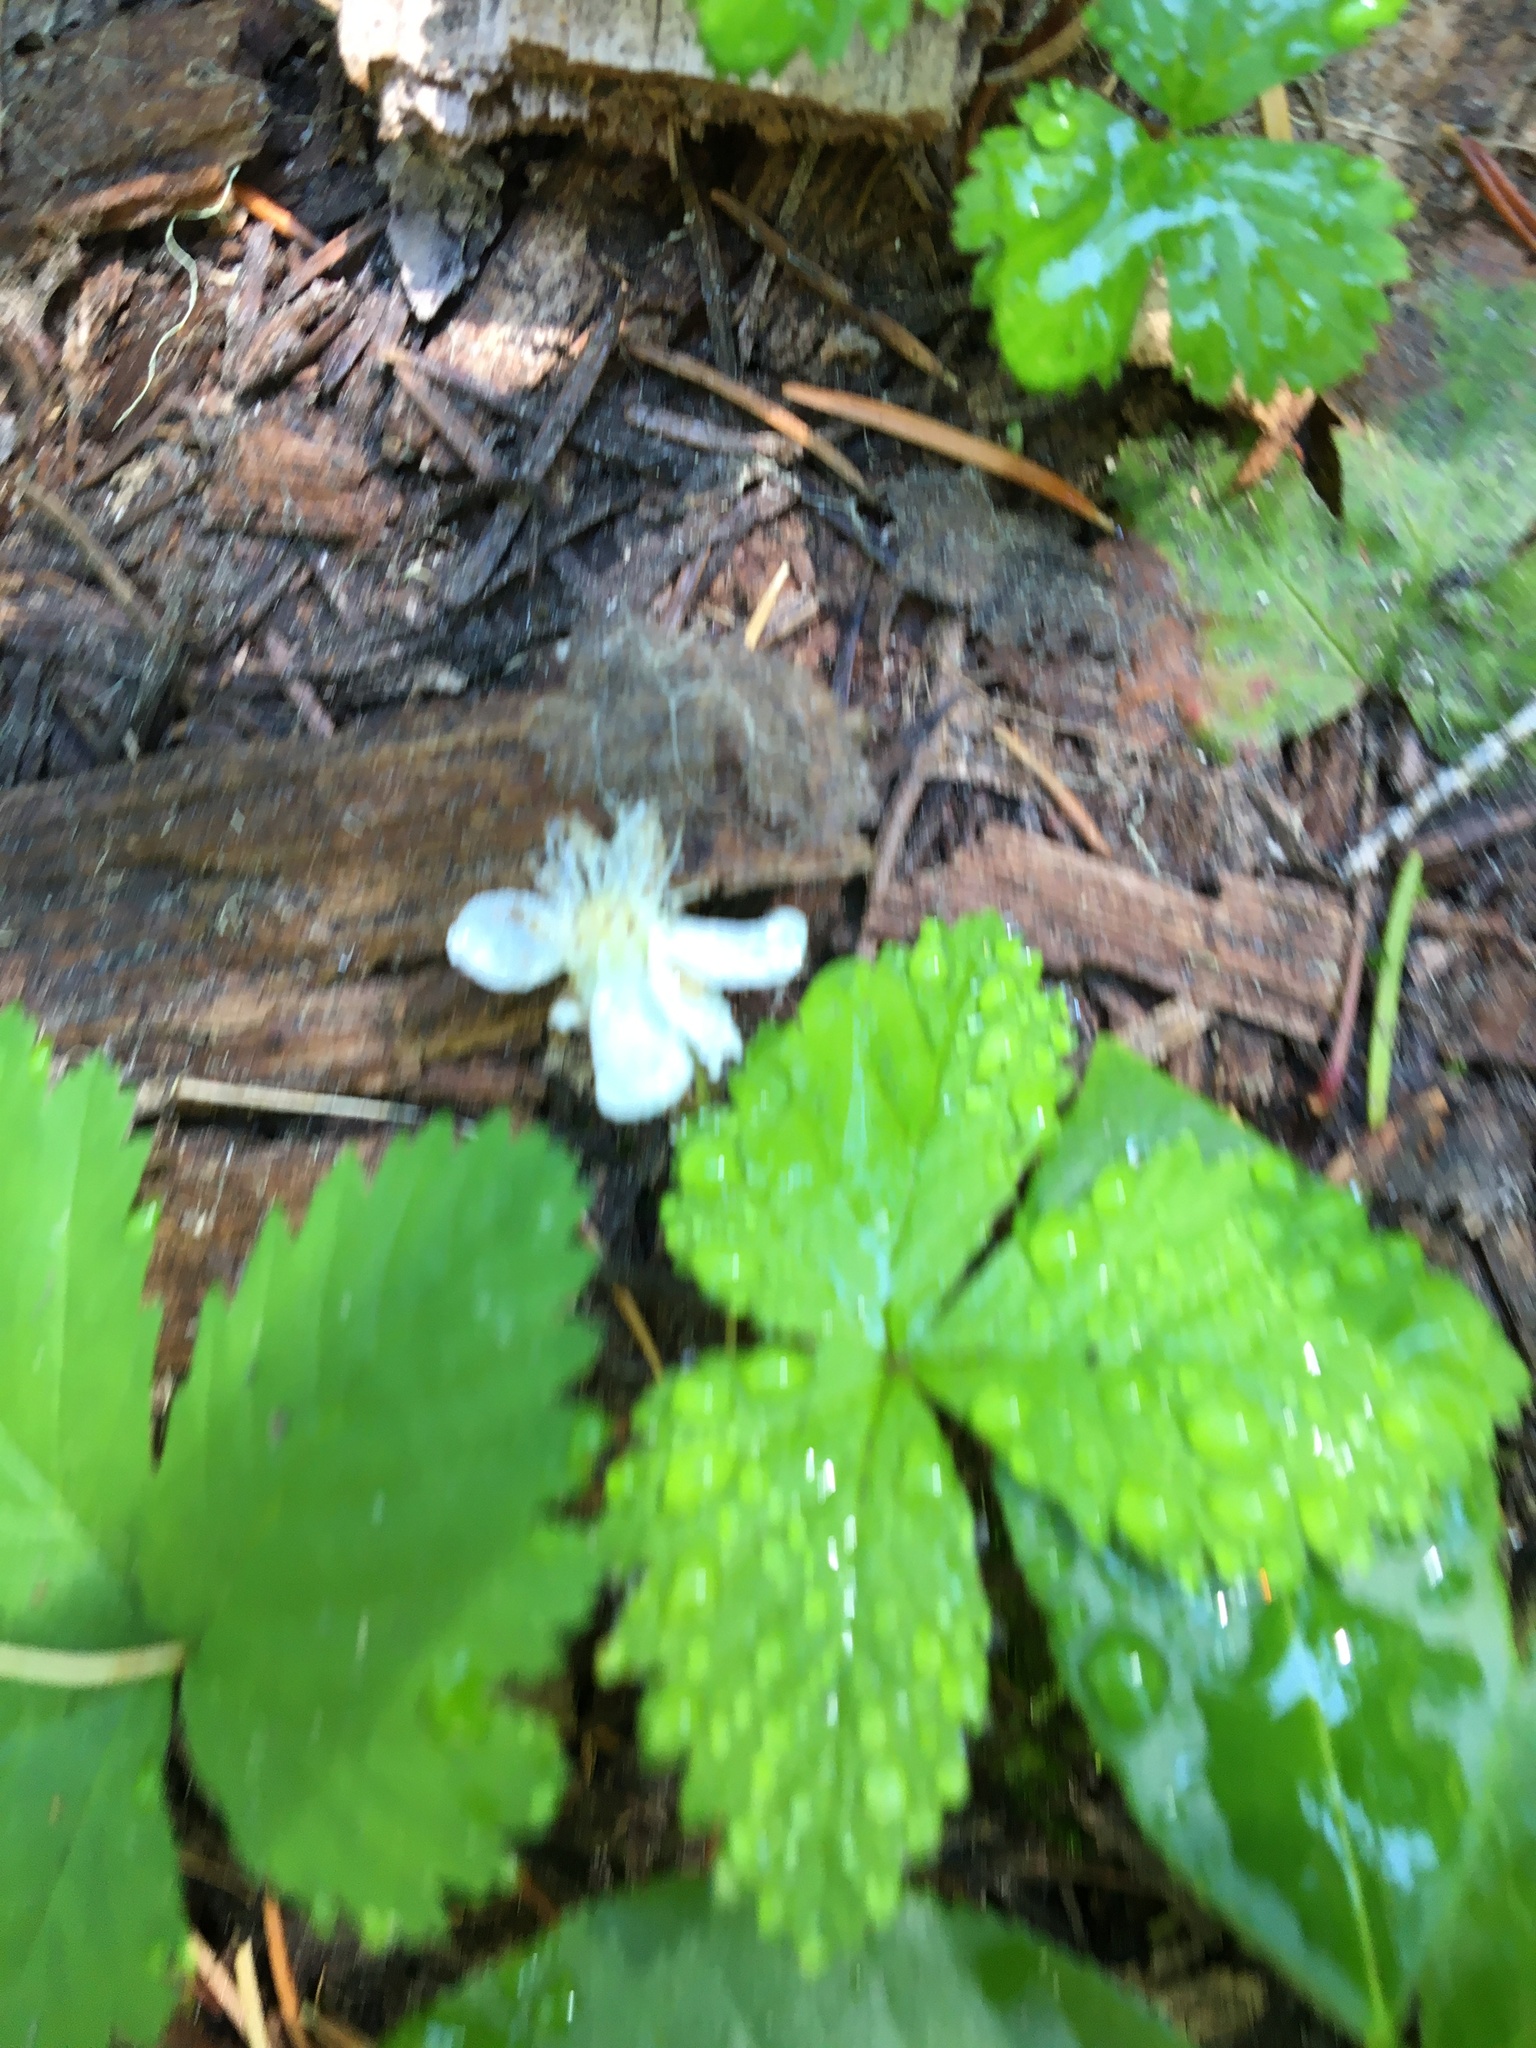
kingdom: Plantae
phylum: Tracheophyta
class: Magnoliopsida
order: Rosales
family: Rosaceae
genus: Rubus
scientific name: Rubus lasiococcus
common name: Dwarf bramble
